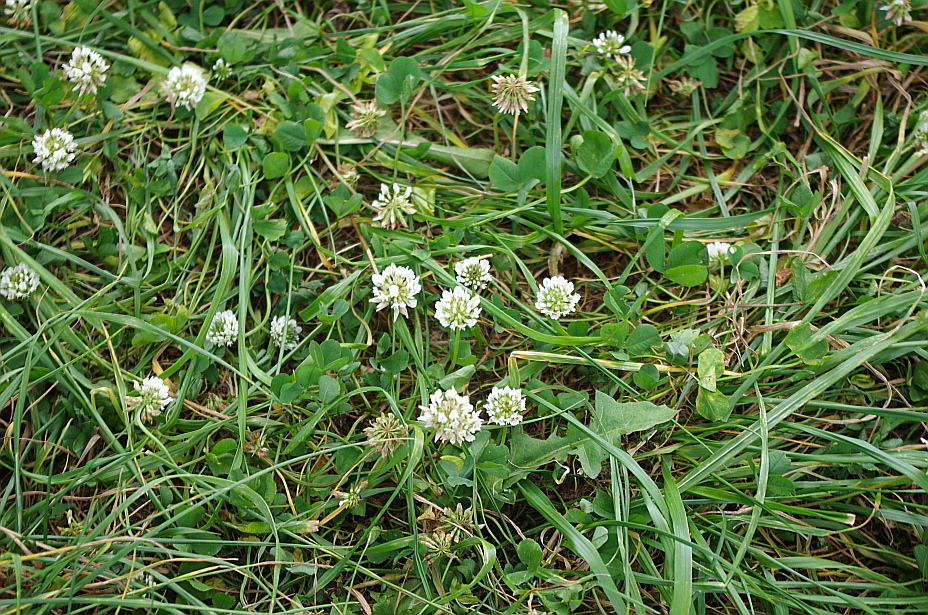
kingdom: Plantae
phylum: Tracheophyta
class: Magnoliopsida
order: Fabales
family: Fabaceae
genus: Trifolium
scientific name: Trifolium repens
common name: White clover
